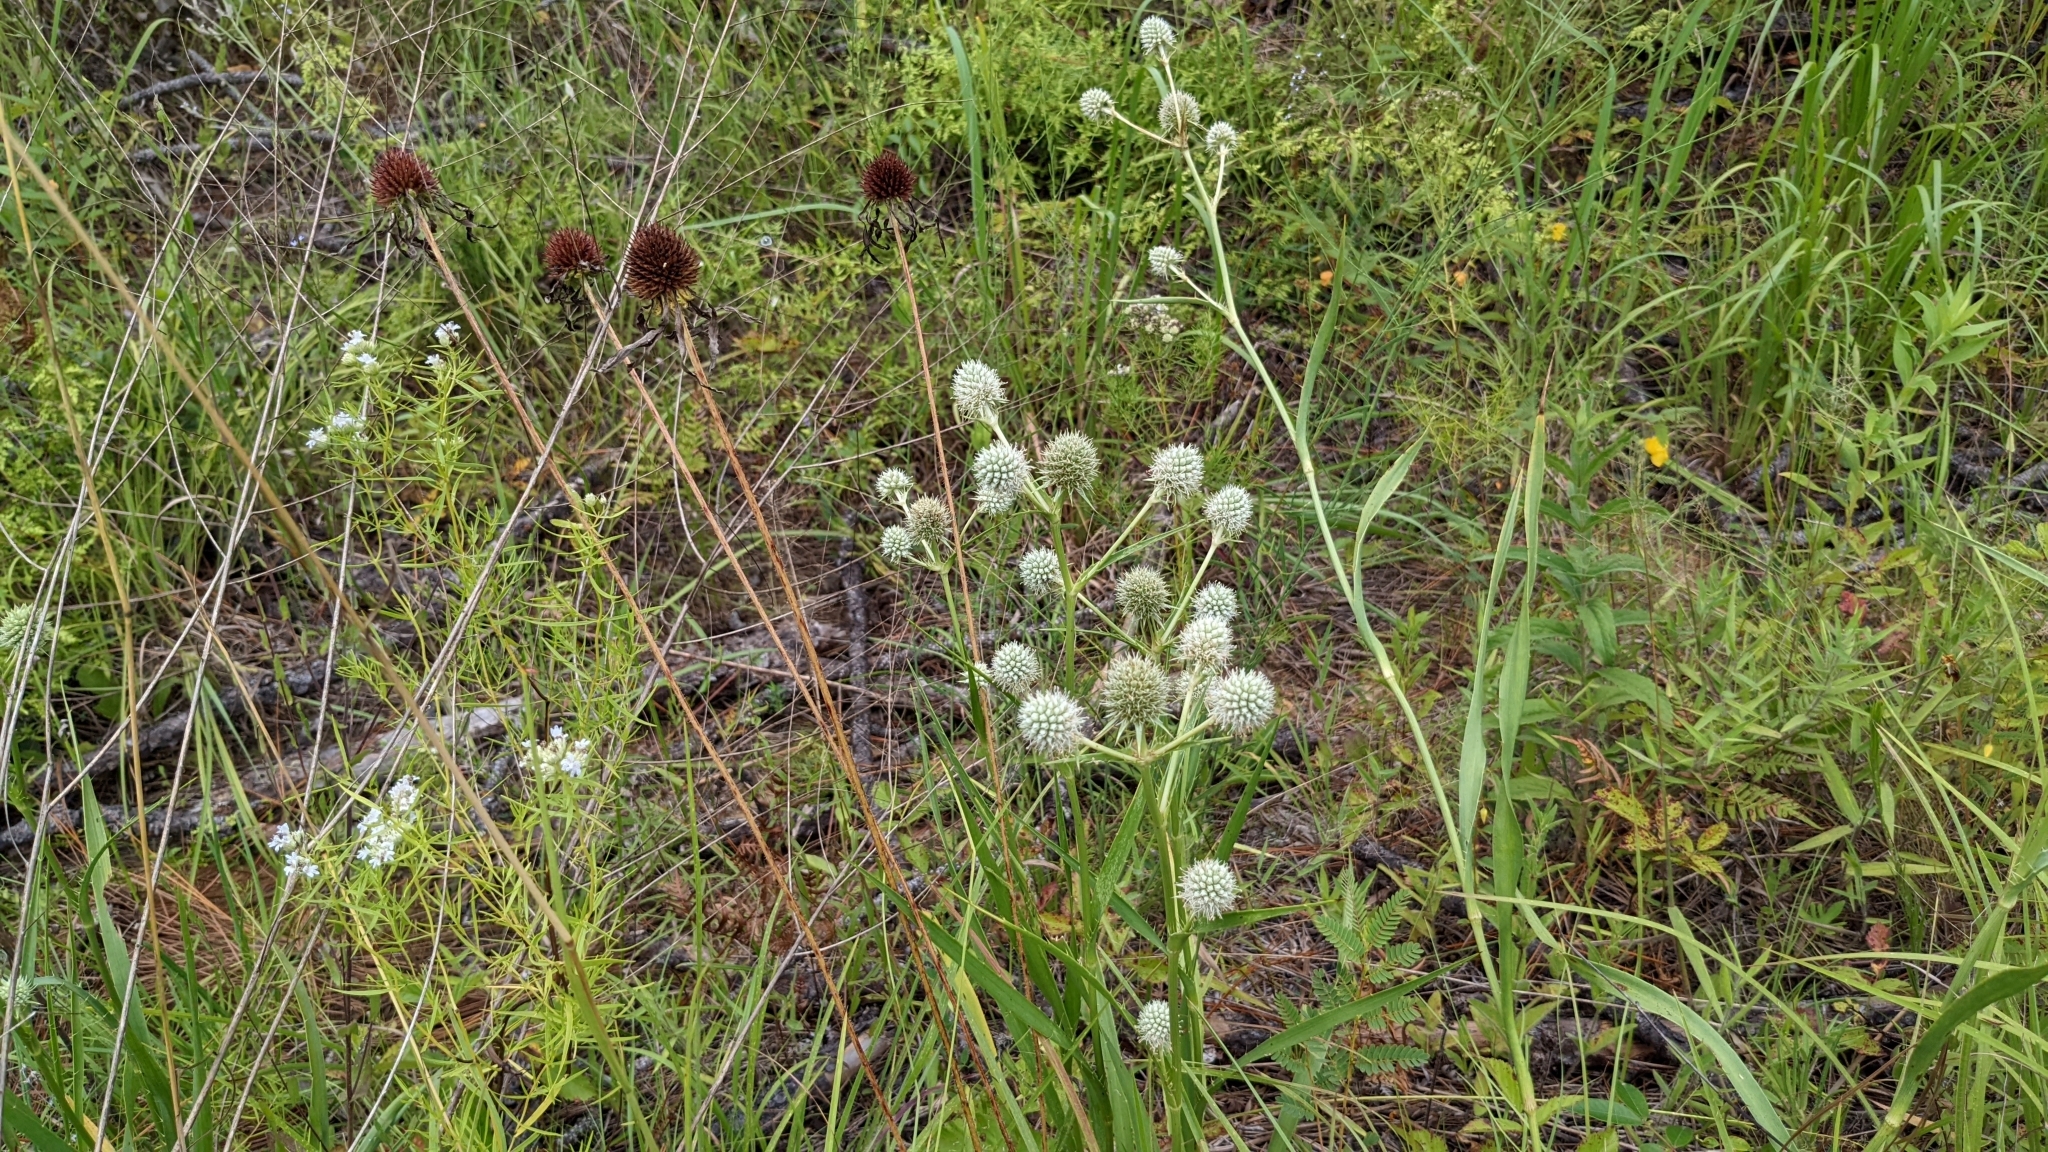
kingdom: Plantae
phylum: Tracheophyta
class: Magnoliopsida
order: Apiales
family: Apiaceae
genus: Eryngium
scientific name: Eryngium yuccifolium
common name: Button eryngo
